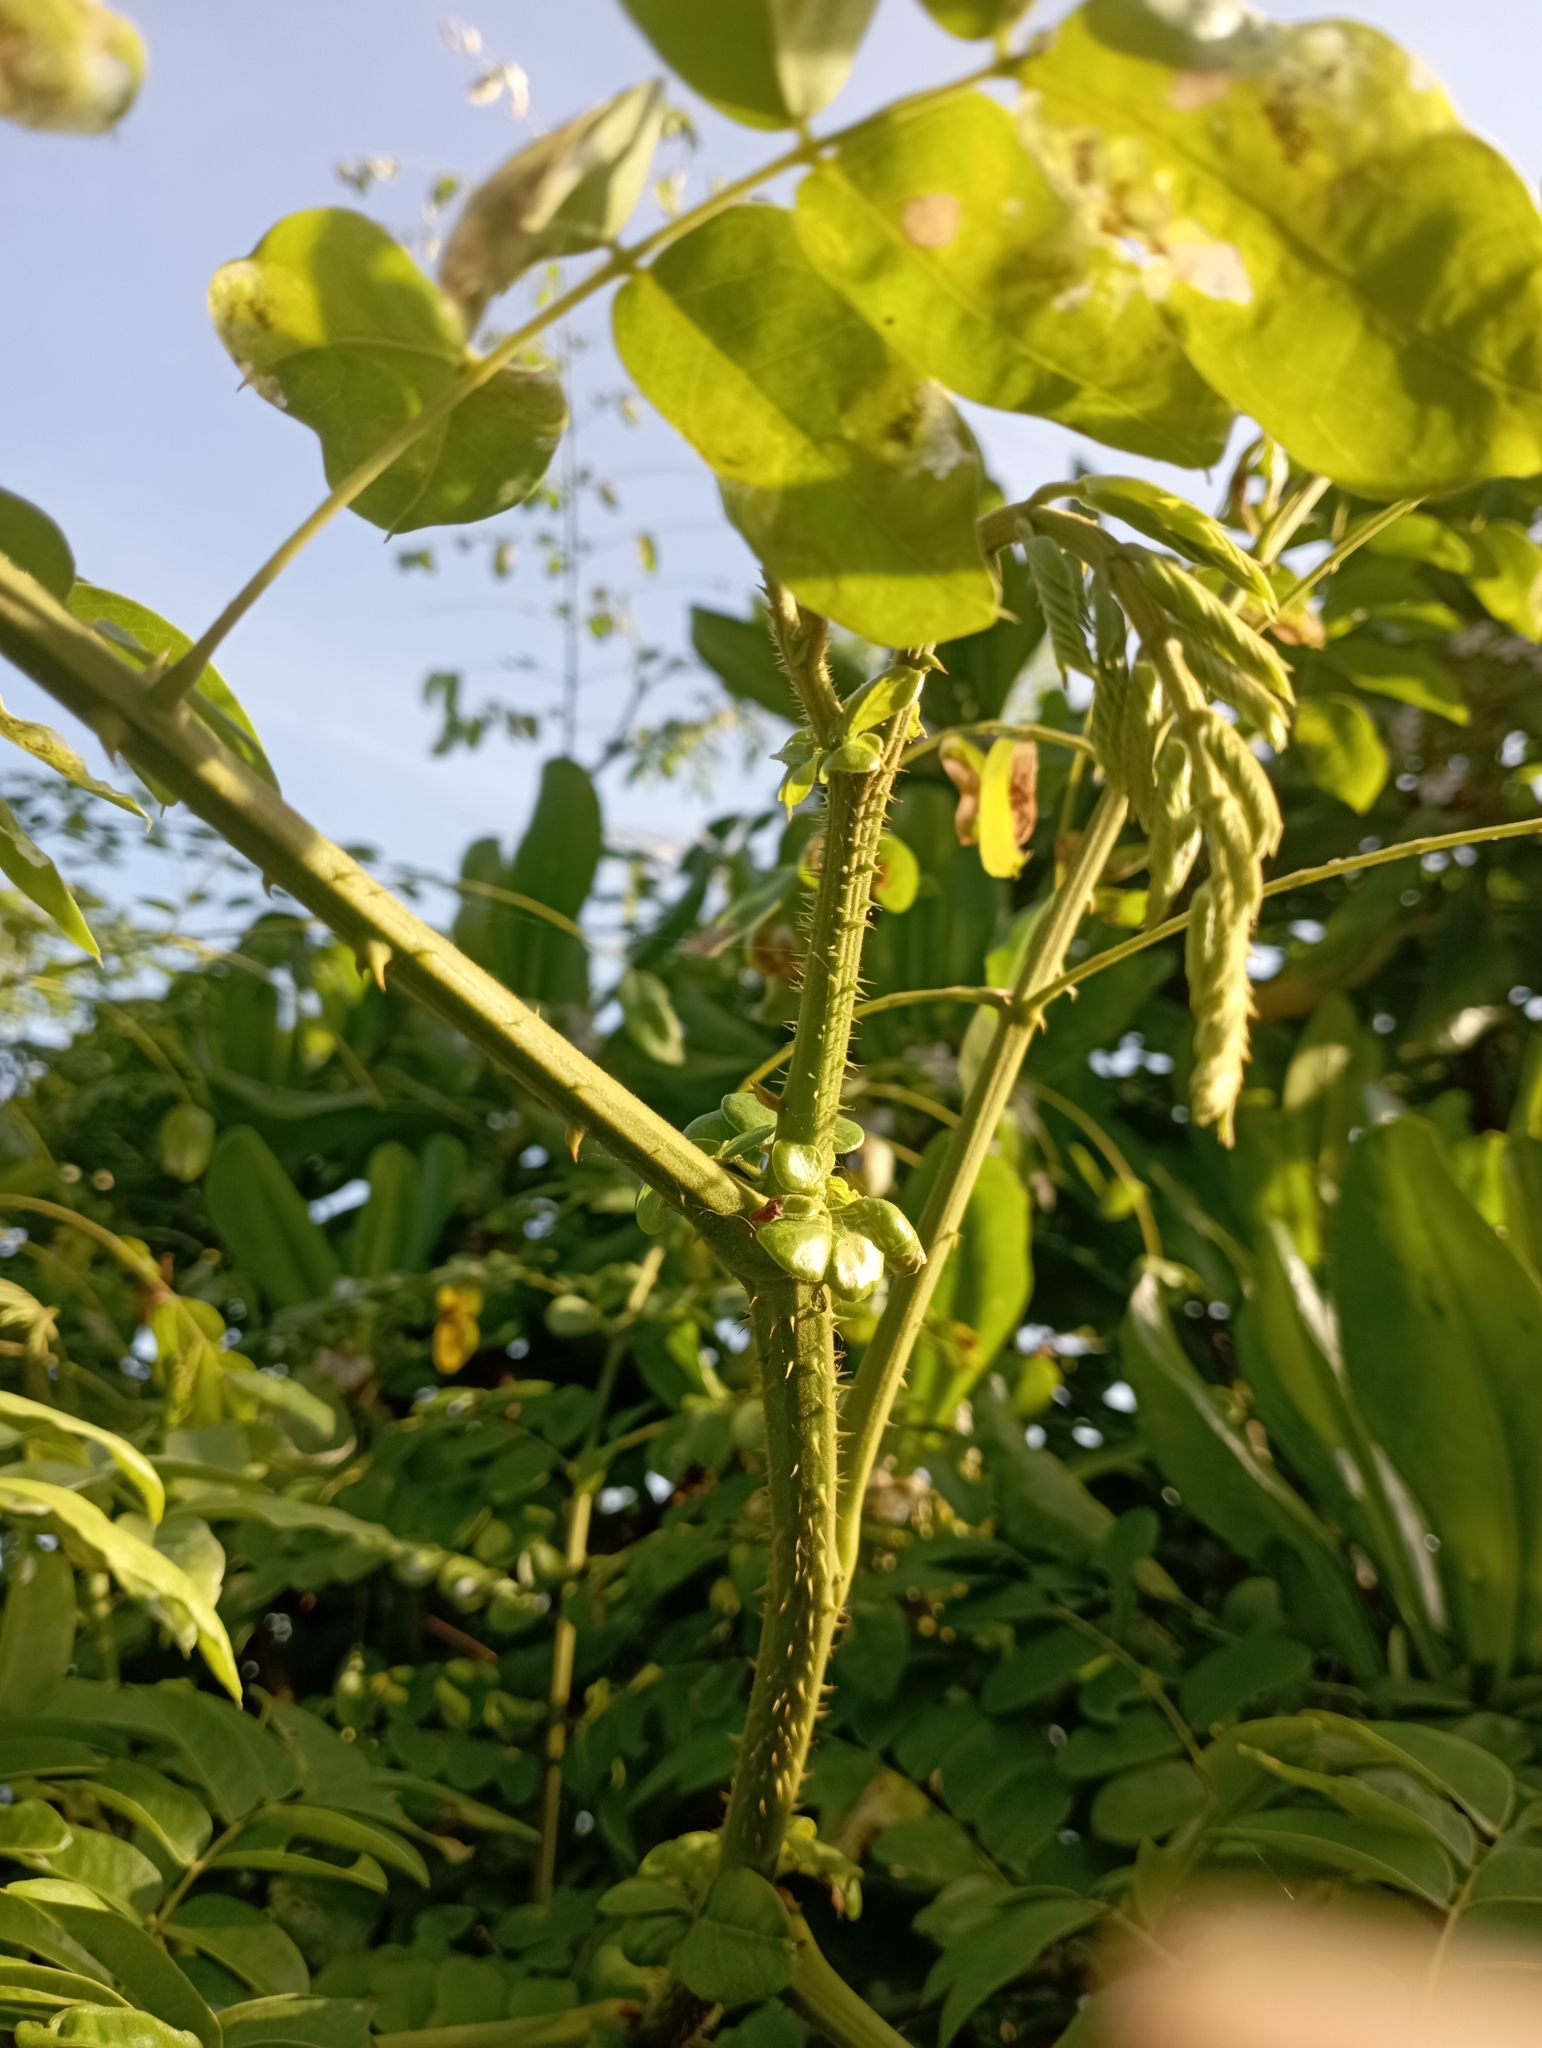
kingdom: Plantae
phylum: Tracheophyta
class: Magnoliopsida
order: Fabales
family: Fabaceae
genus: Guilandina
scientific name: Guilandina bonduc
